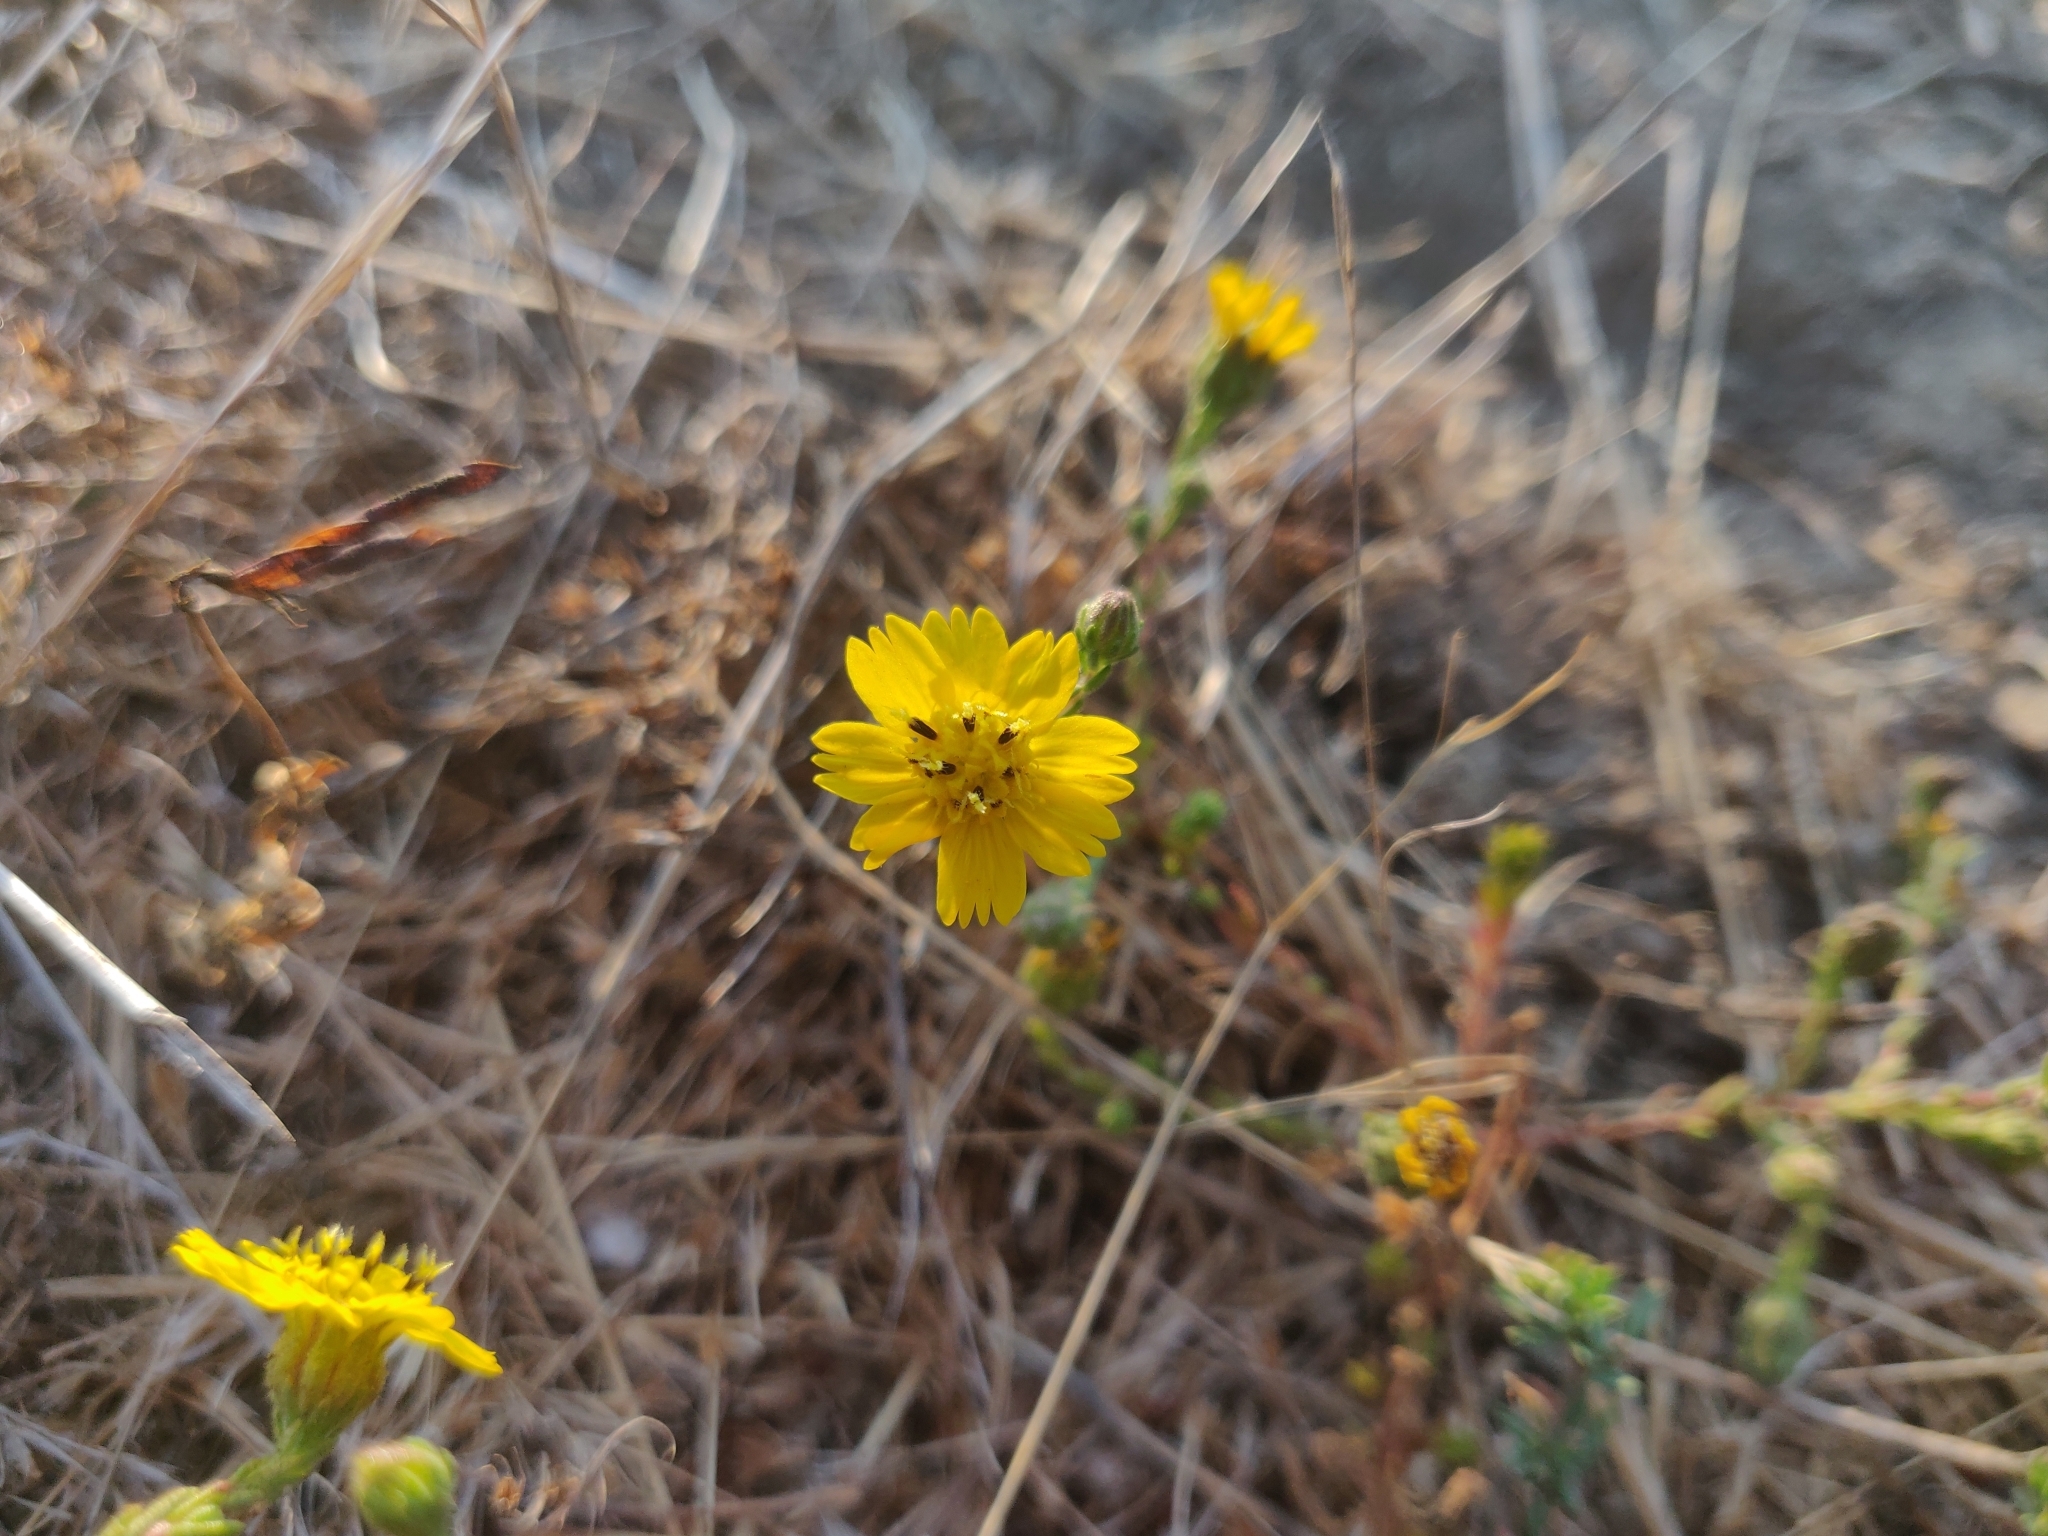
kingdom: Plantae
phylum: Tracheophyta
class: Magnoliopsida
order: Asterales
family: Asteraceae
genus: Deinandra
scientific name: Deinandra paniculata
